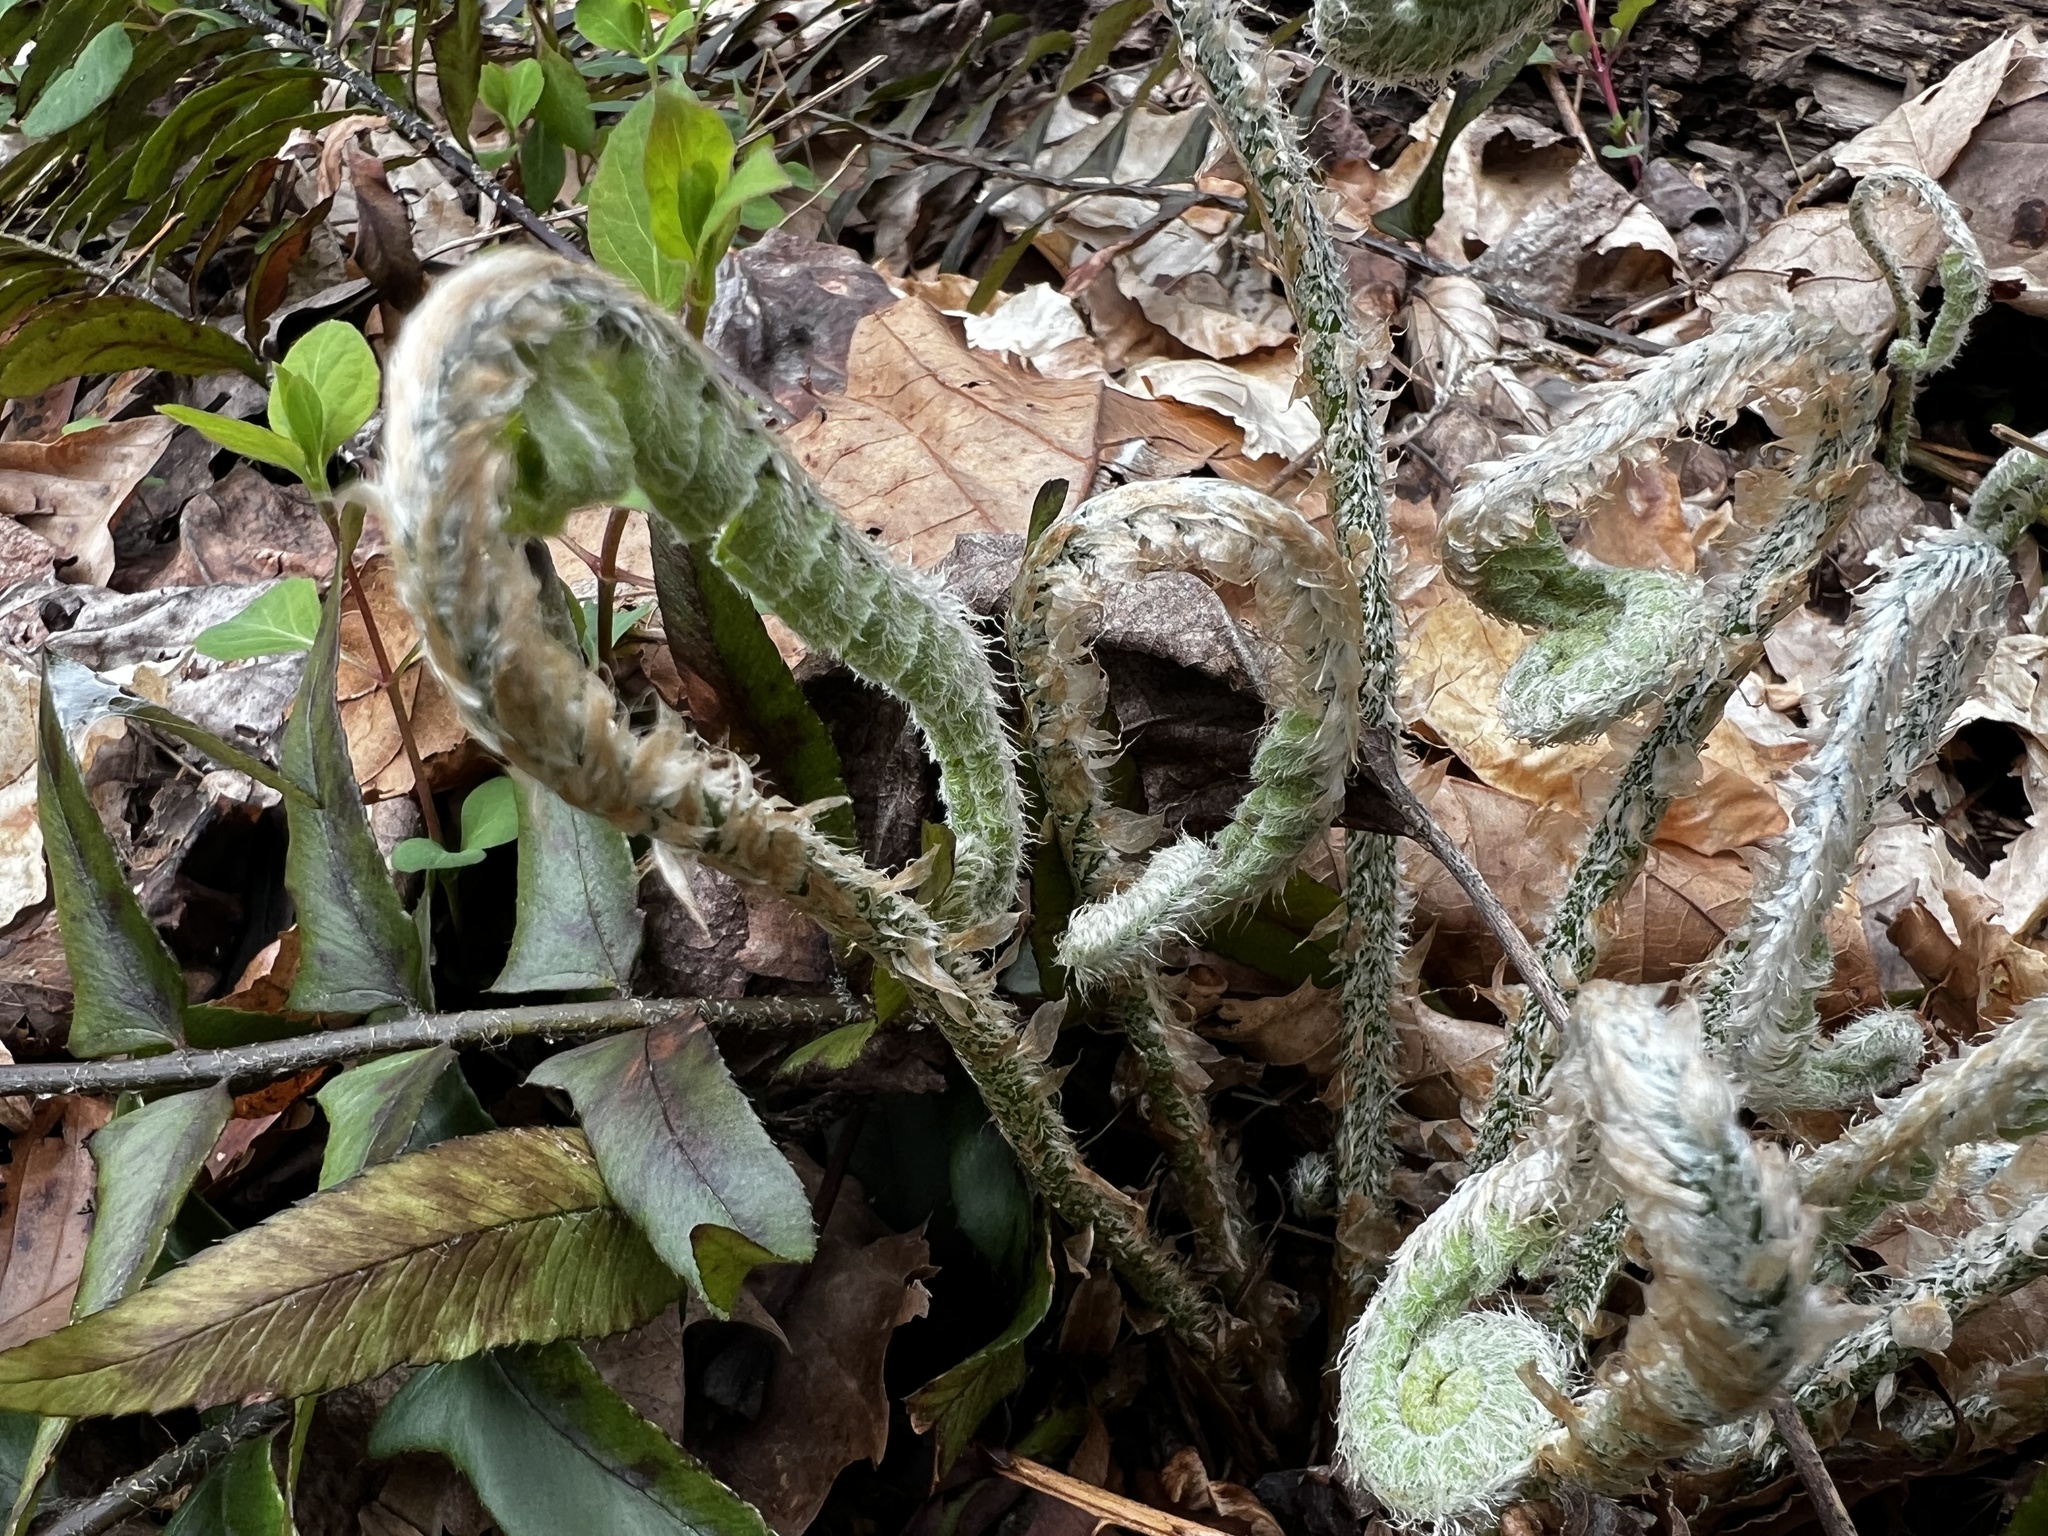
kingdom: Plantae
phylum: Tracheophyta
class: Polypodiopsida
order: Polypodiales
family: Dryopteridaceae
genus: Polystichum
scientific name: Polystichum acrostichoides
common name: Christmas fern
